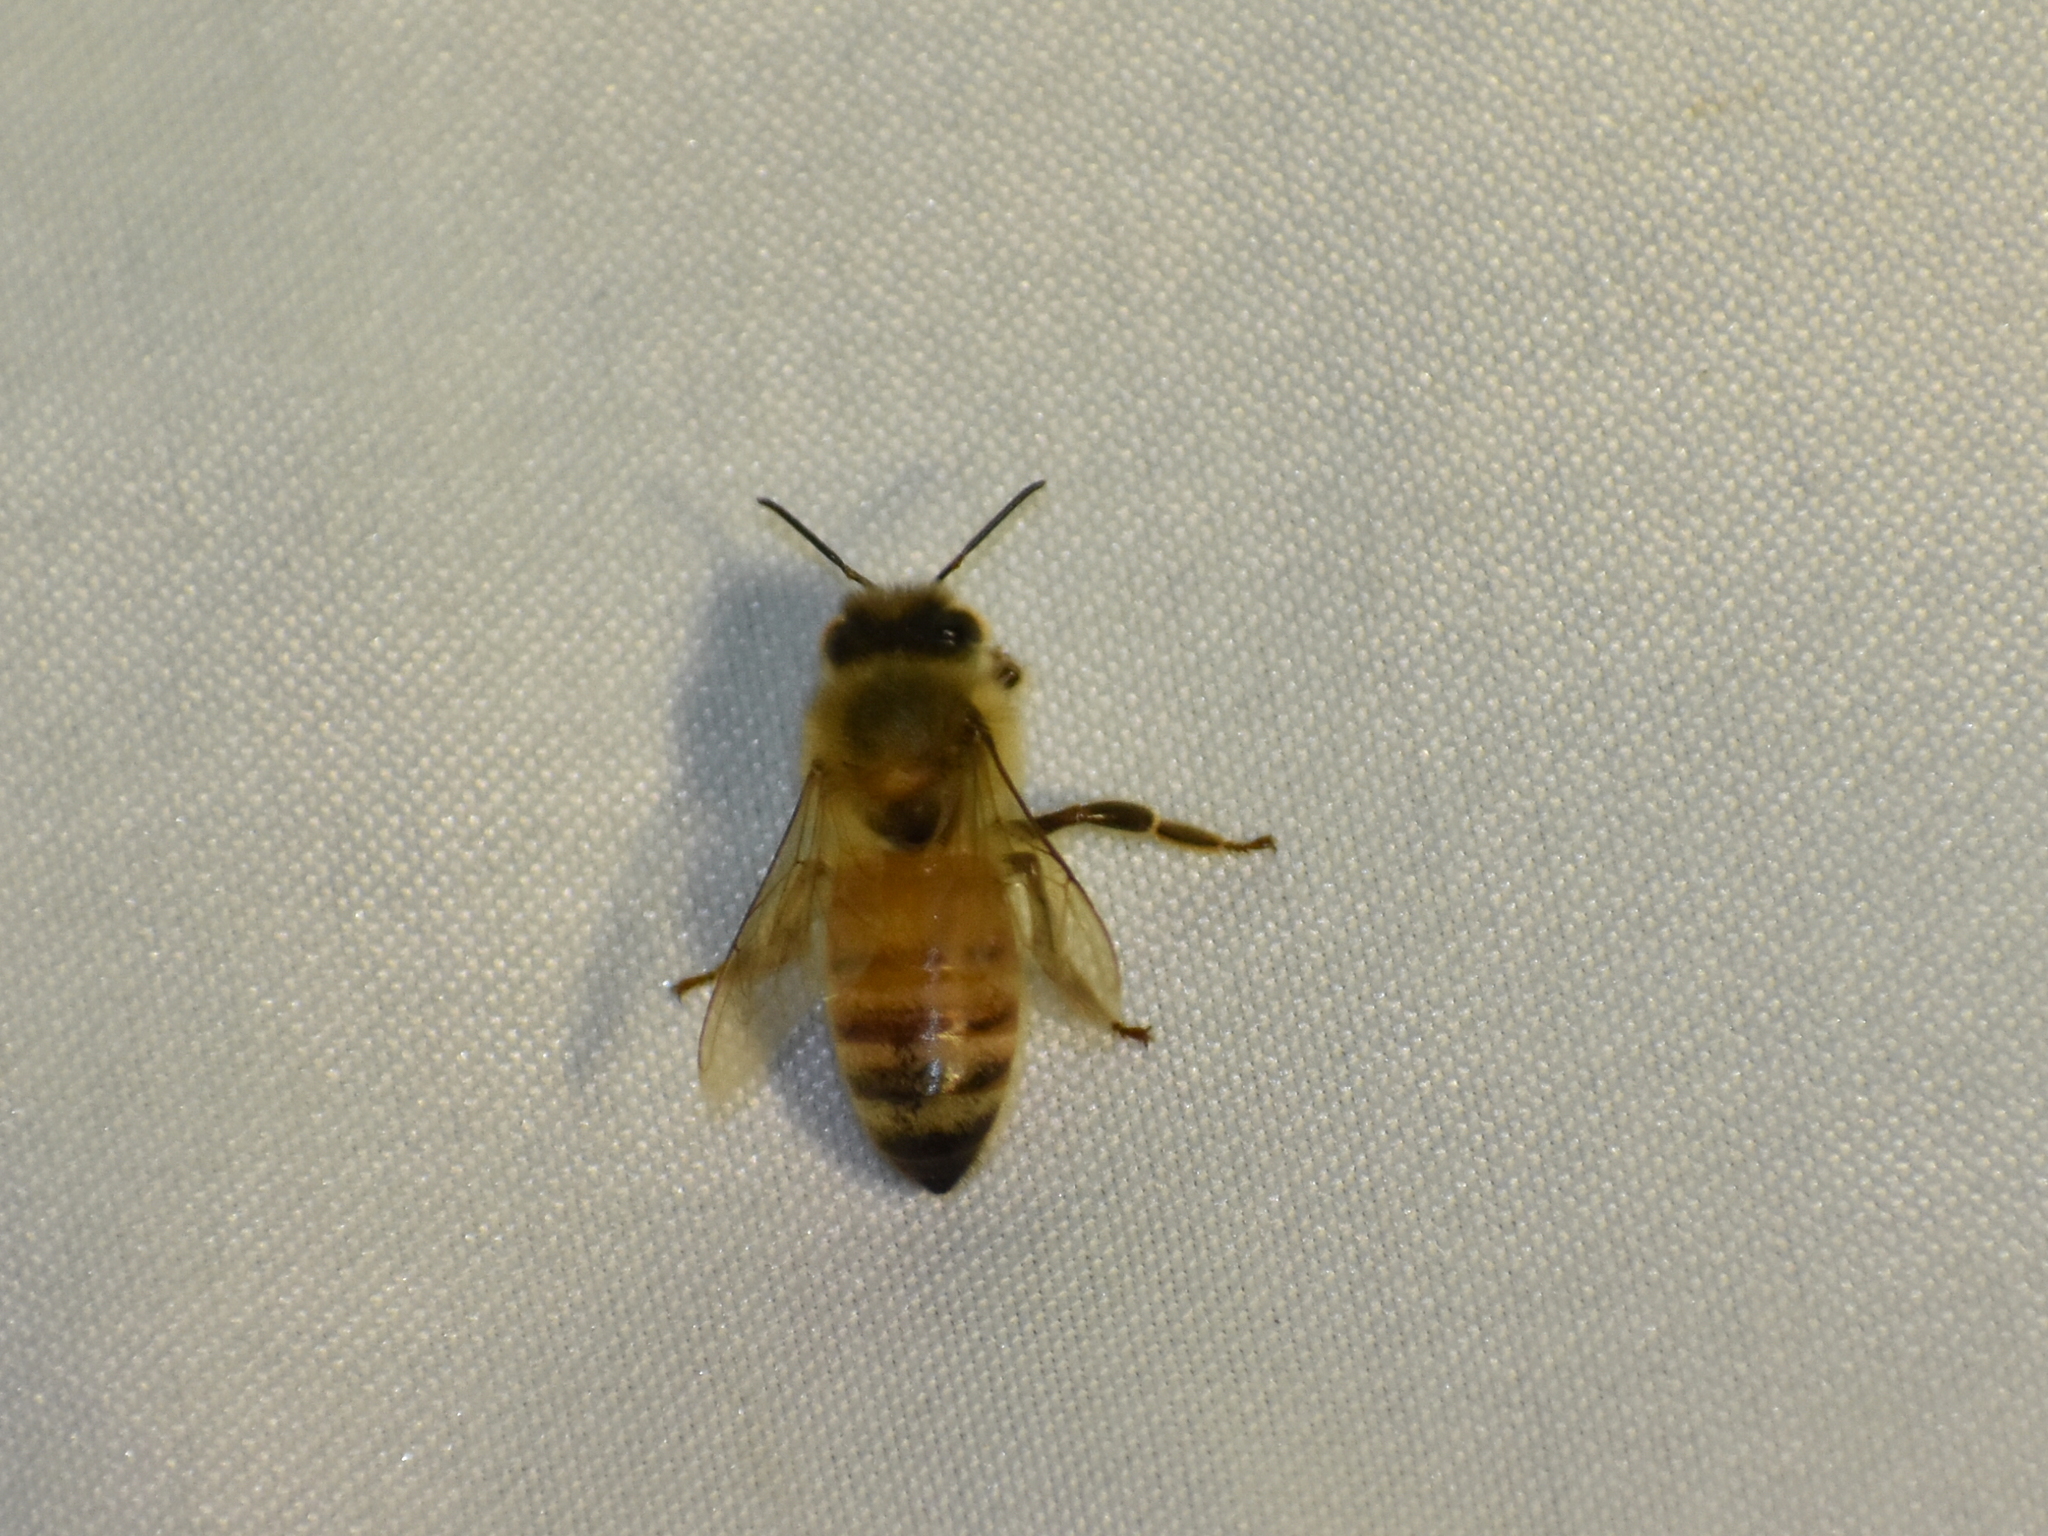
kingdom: Animalia
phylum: Arthropoda
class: Insecta
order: Hymenoptera
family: Apidae
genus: Apis
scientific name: Apis mellifera
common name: Honey bee
